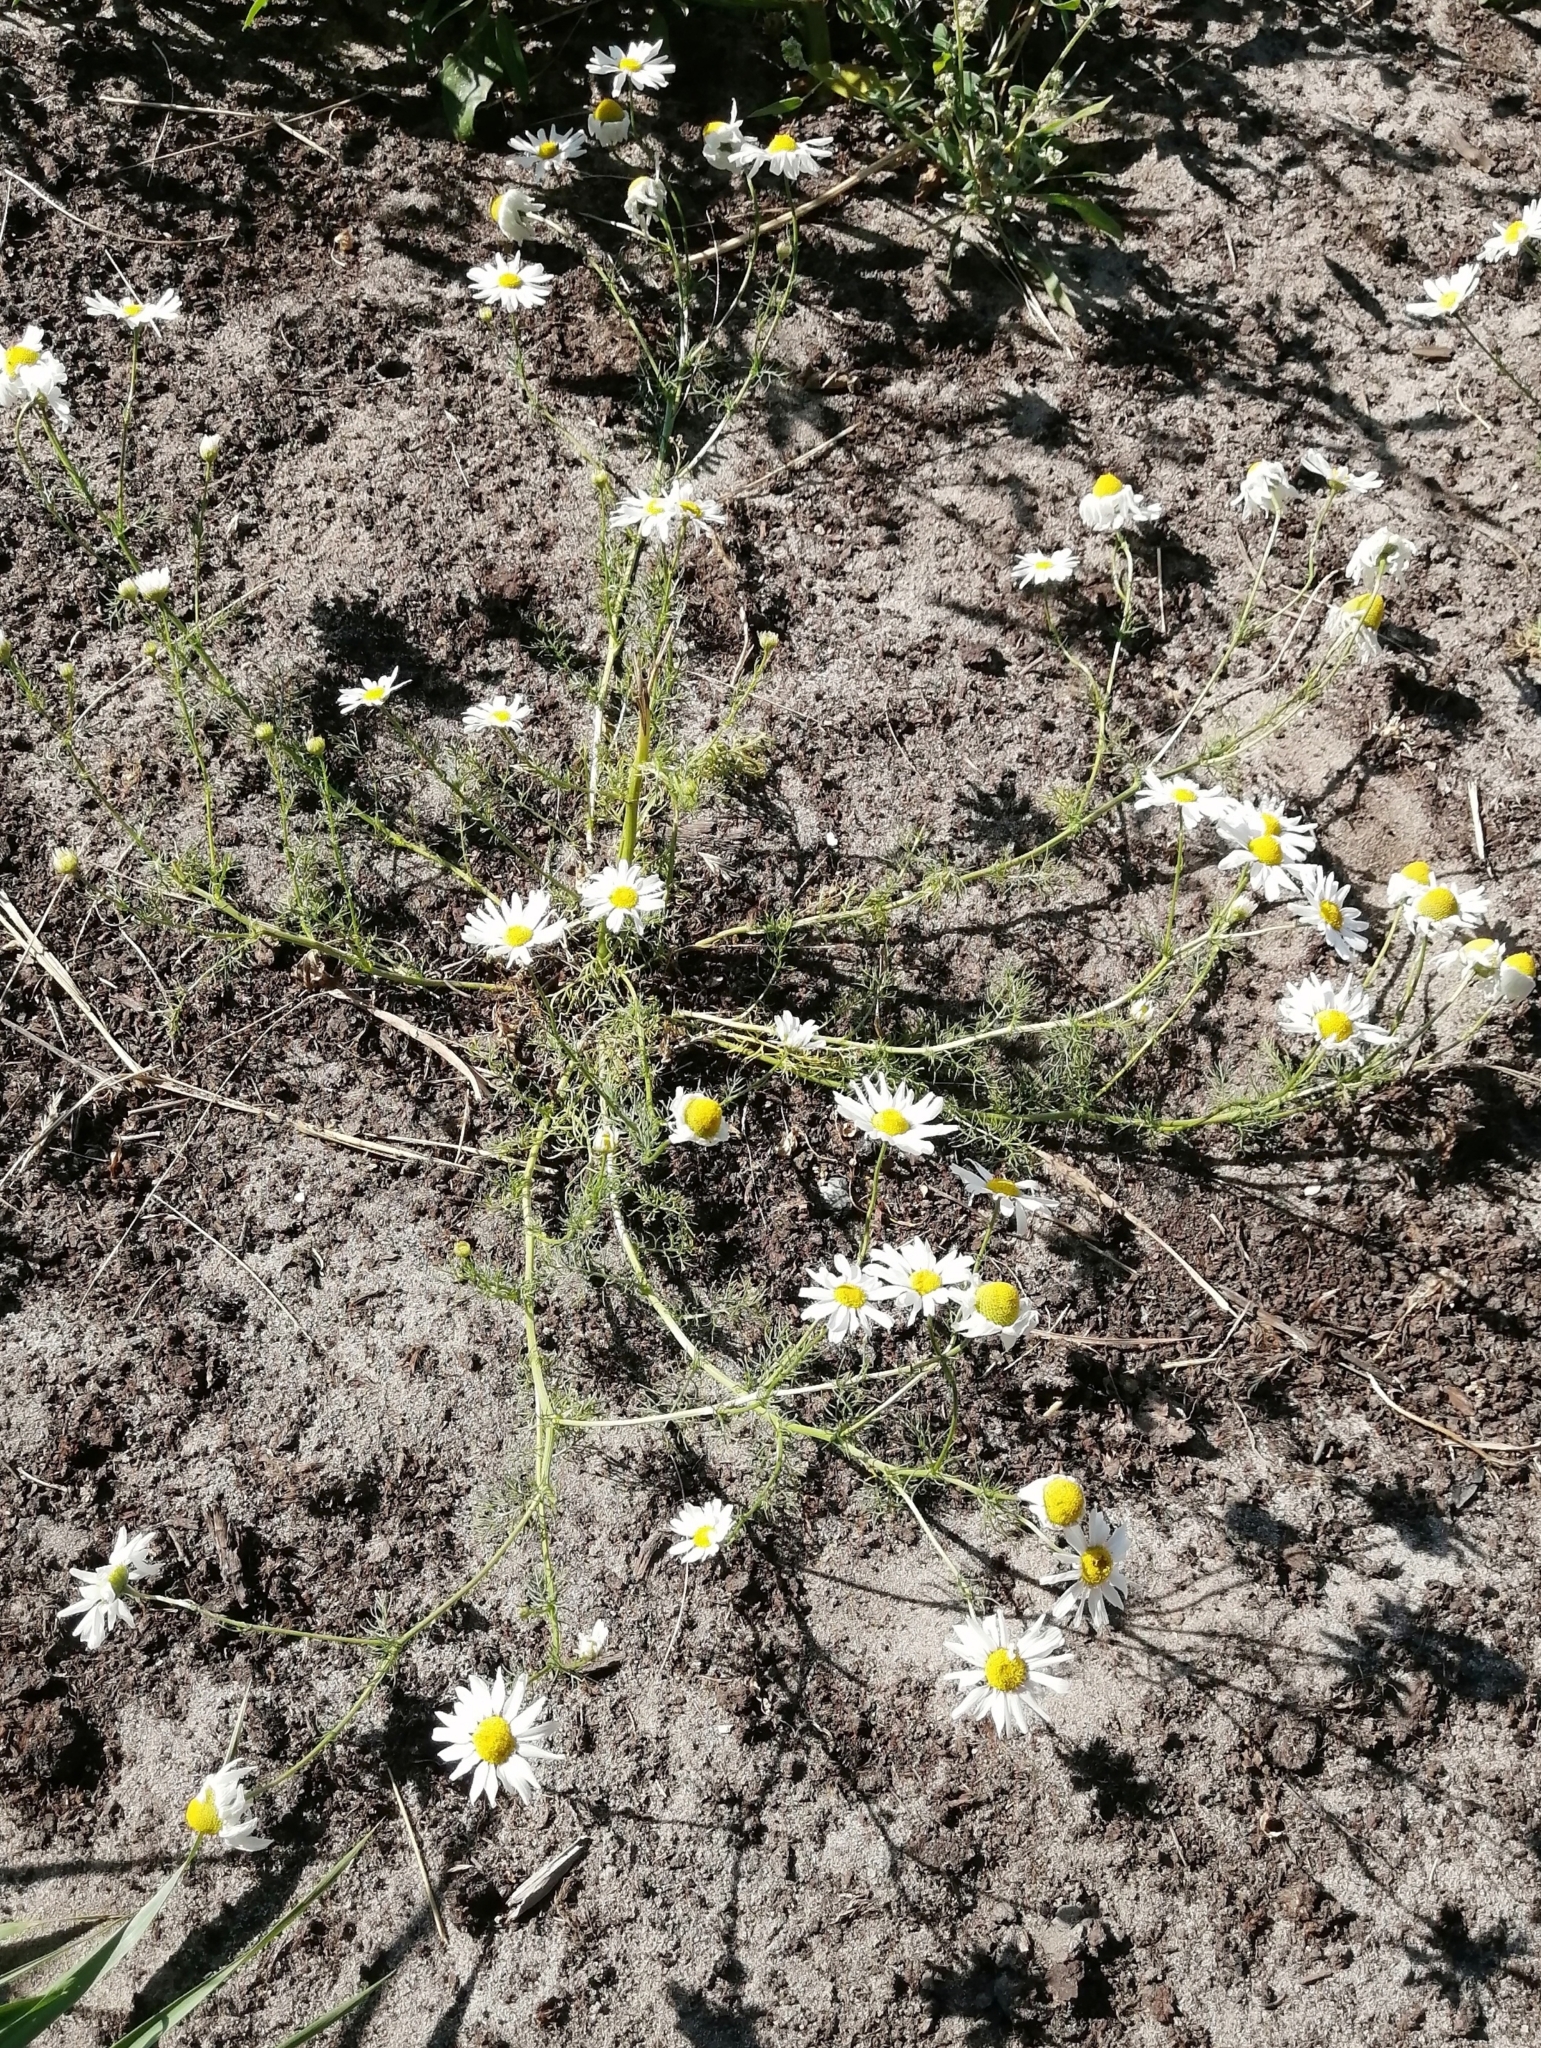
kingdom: Plantae
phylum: Tracheophyta
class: Magnoliopsida
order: Asterales
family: Asteraceae
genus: Tripleurospermum
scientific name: Tripleurospermum inodorum
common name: Scentless mayweed
